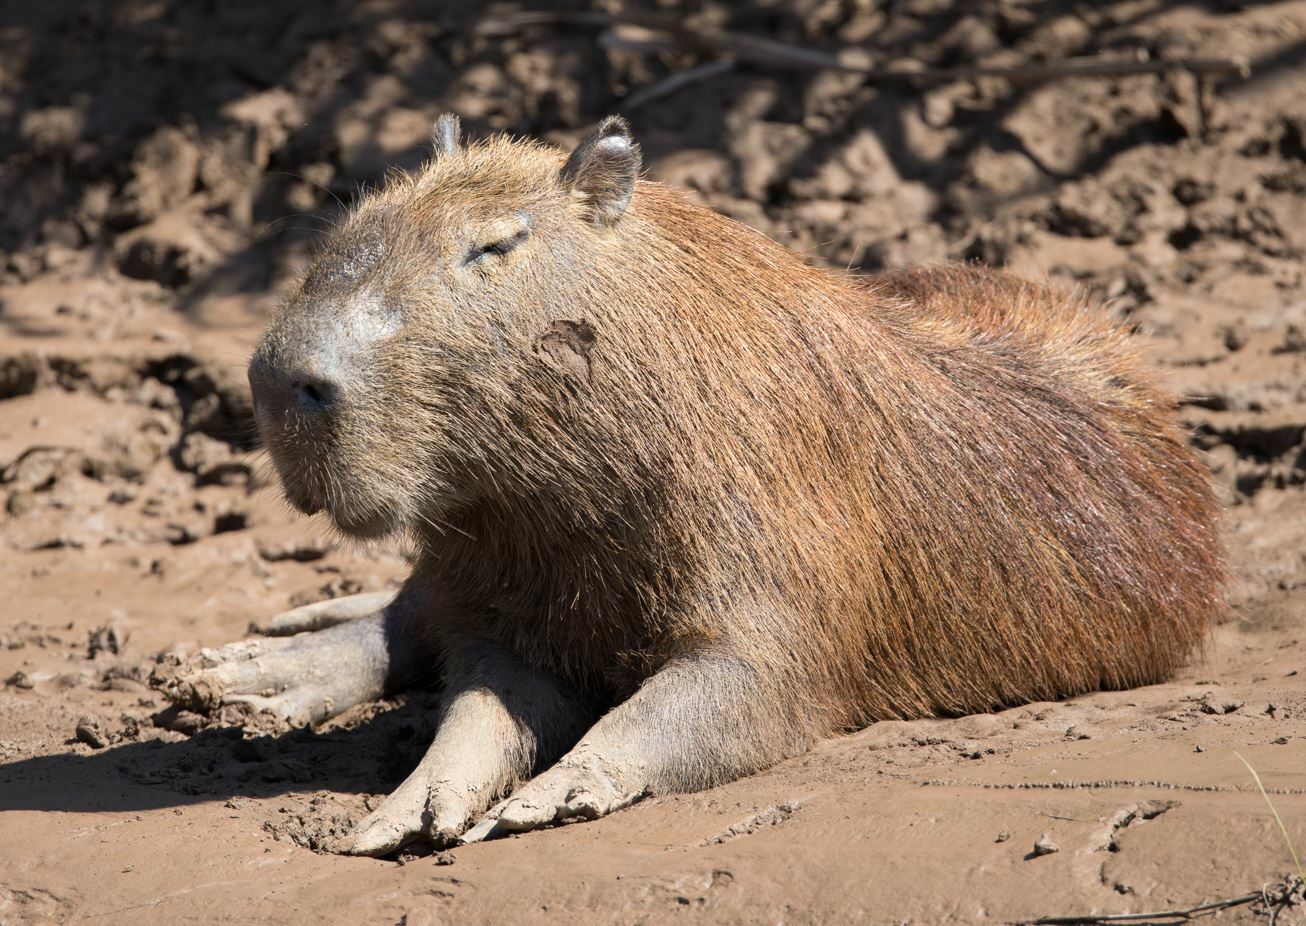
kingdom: Animalia
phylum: Chordata
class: Mammalia
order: Rodentia
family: Caviidae
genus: Hydrochoerus
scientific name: Hydrochoerus hydrochaeris
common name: Capybara
